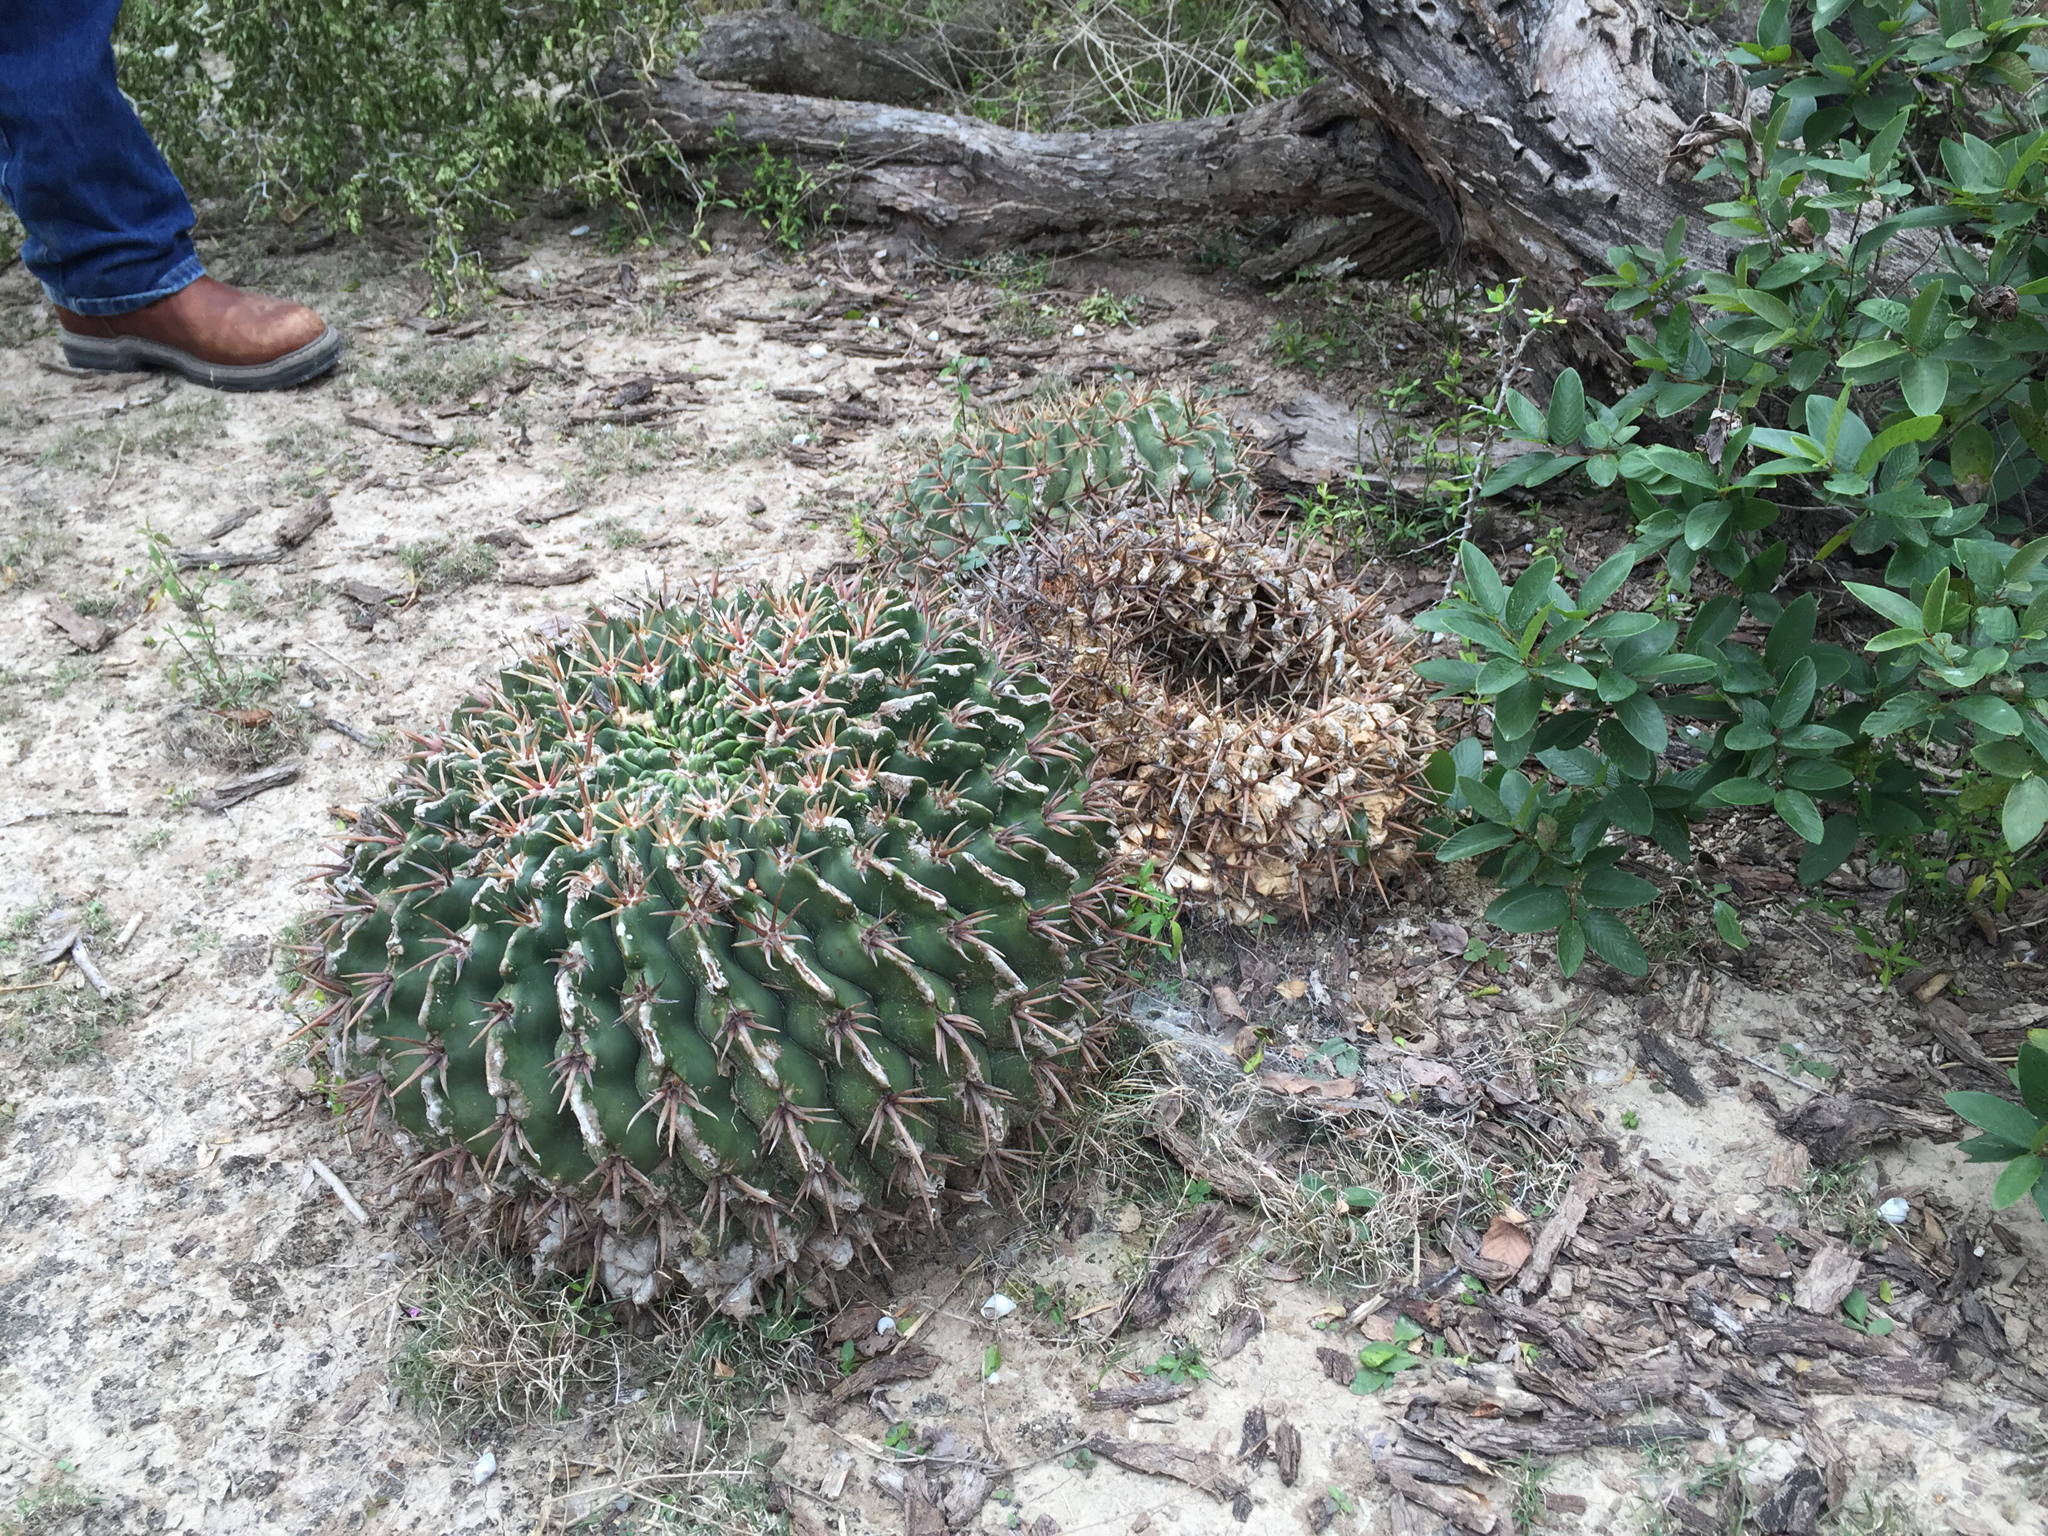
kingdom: Plantae
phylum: Tracheophyta
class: Magnoliopsida
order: Caryophyllales
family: Cactaceae
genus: Echinocactus
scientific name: Echinocactus texensis
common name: Devil's pincushion
